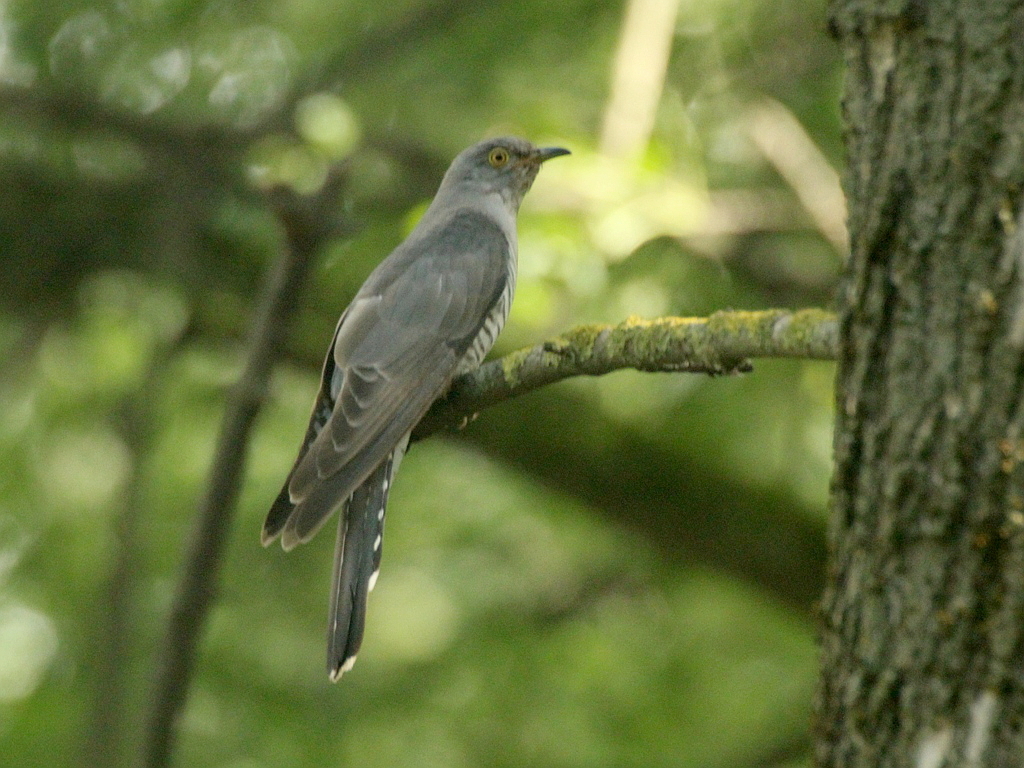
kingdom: Animalia
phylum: Chordata
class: Aves
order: Cuculiformes
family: Cuculidae
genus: Cuculus
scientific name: Cuculus canorus
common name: Common cuckoo
